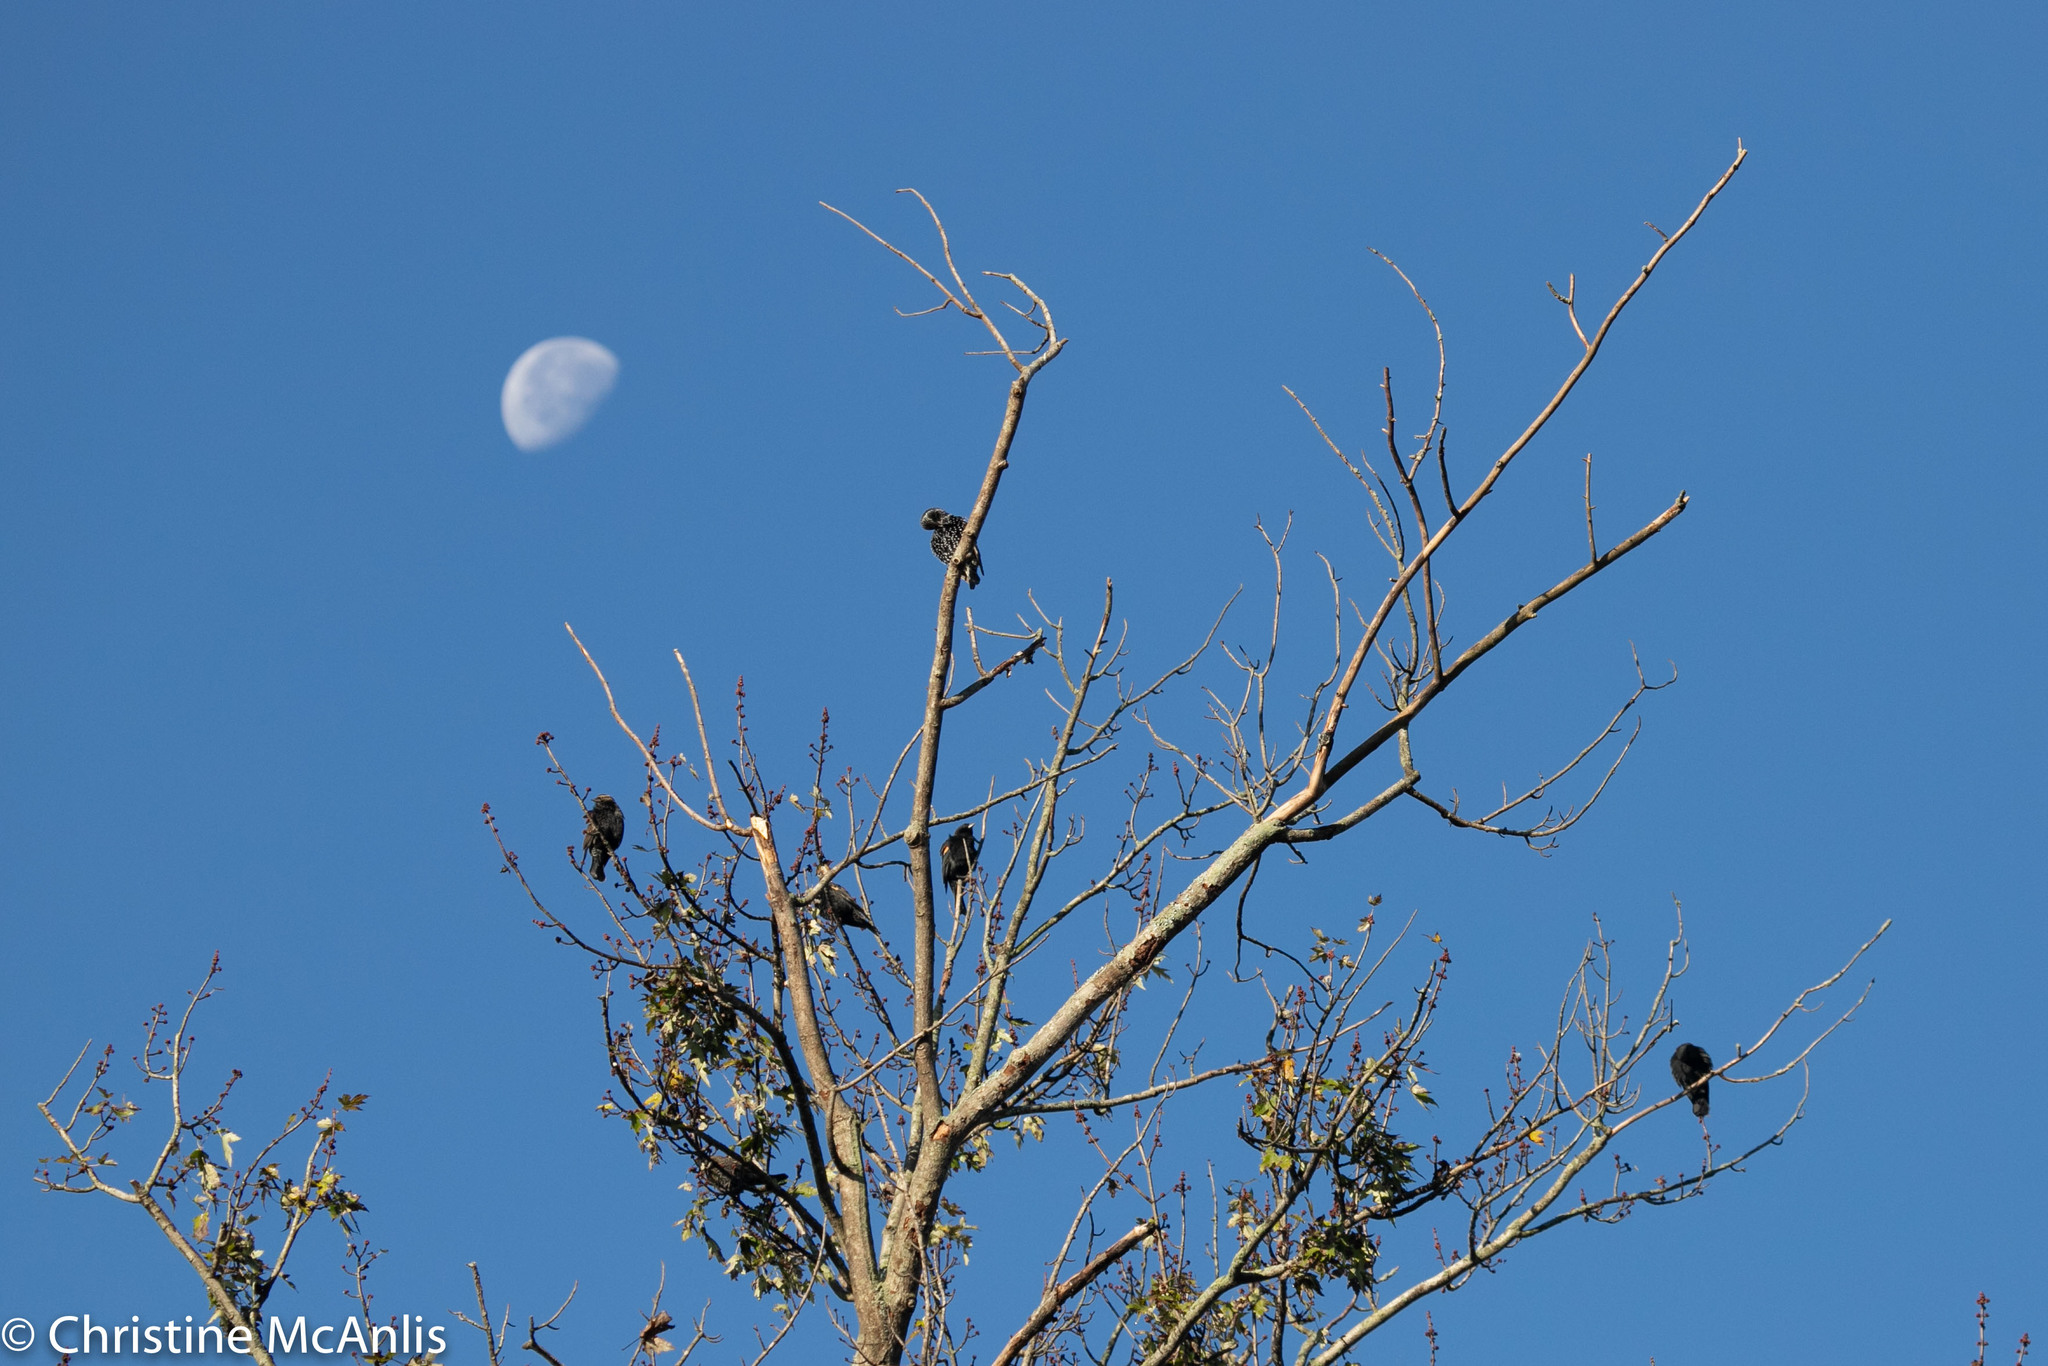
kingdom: Animalia
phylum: Chordata
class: Aves
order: Passeriformes
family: Sturnidae
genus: Sturnus
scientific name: Sturnus vulgaris
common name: Common starling
